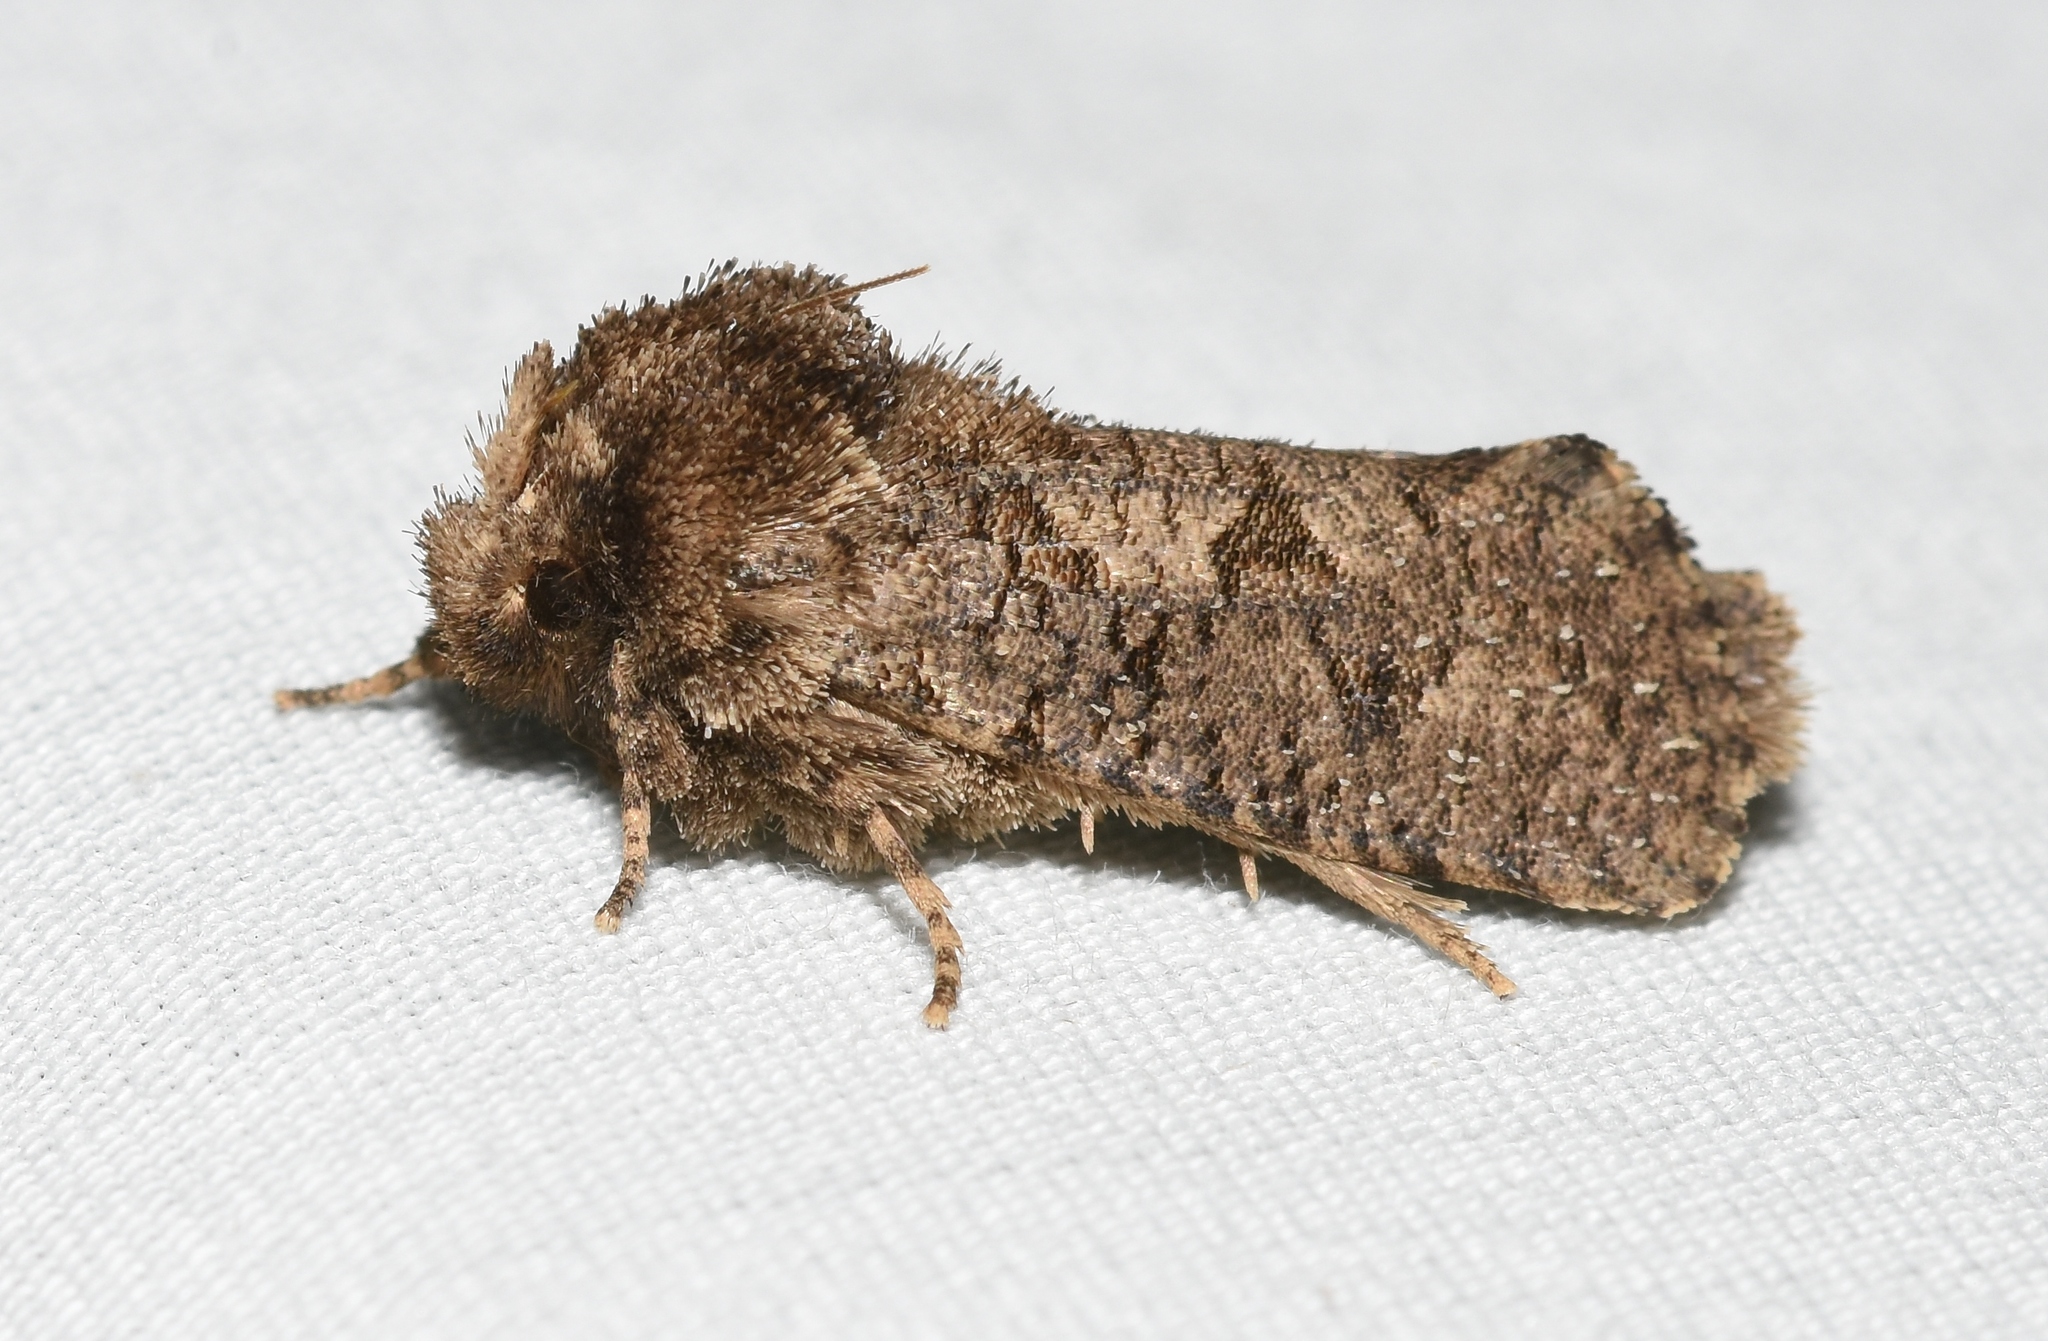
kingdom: Animalia
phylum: Arthropoda
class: Insecta
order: Lepidoptera
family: Tineidae
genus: Acrolophus
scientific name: Acrolophus arcanella
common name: Arcane grass tubeworm moth
